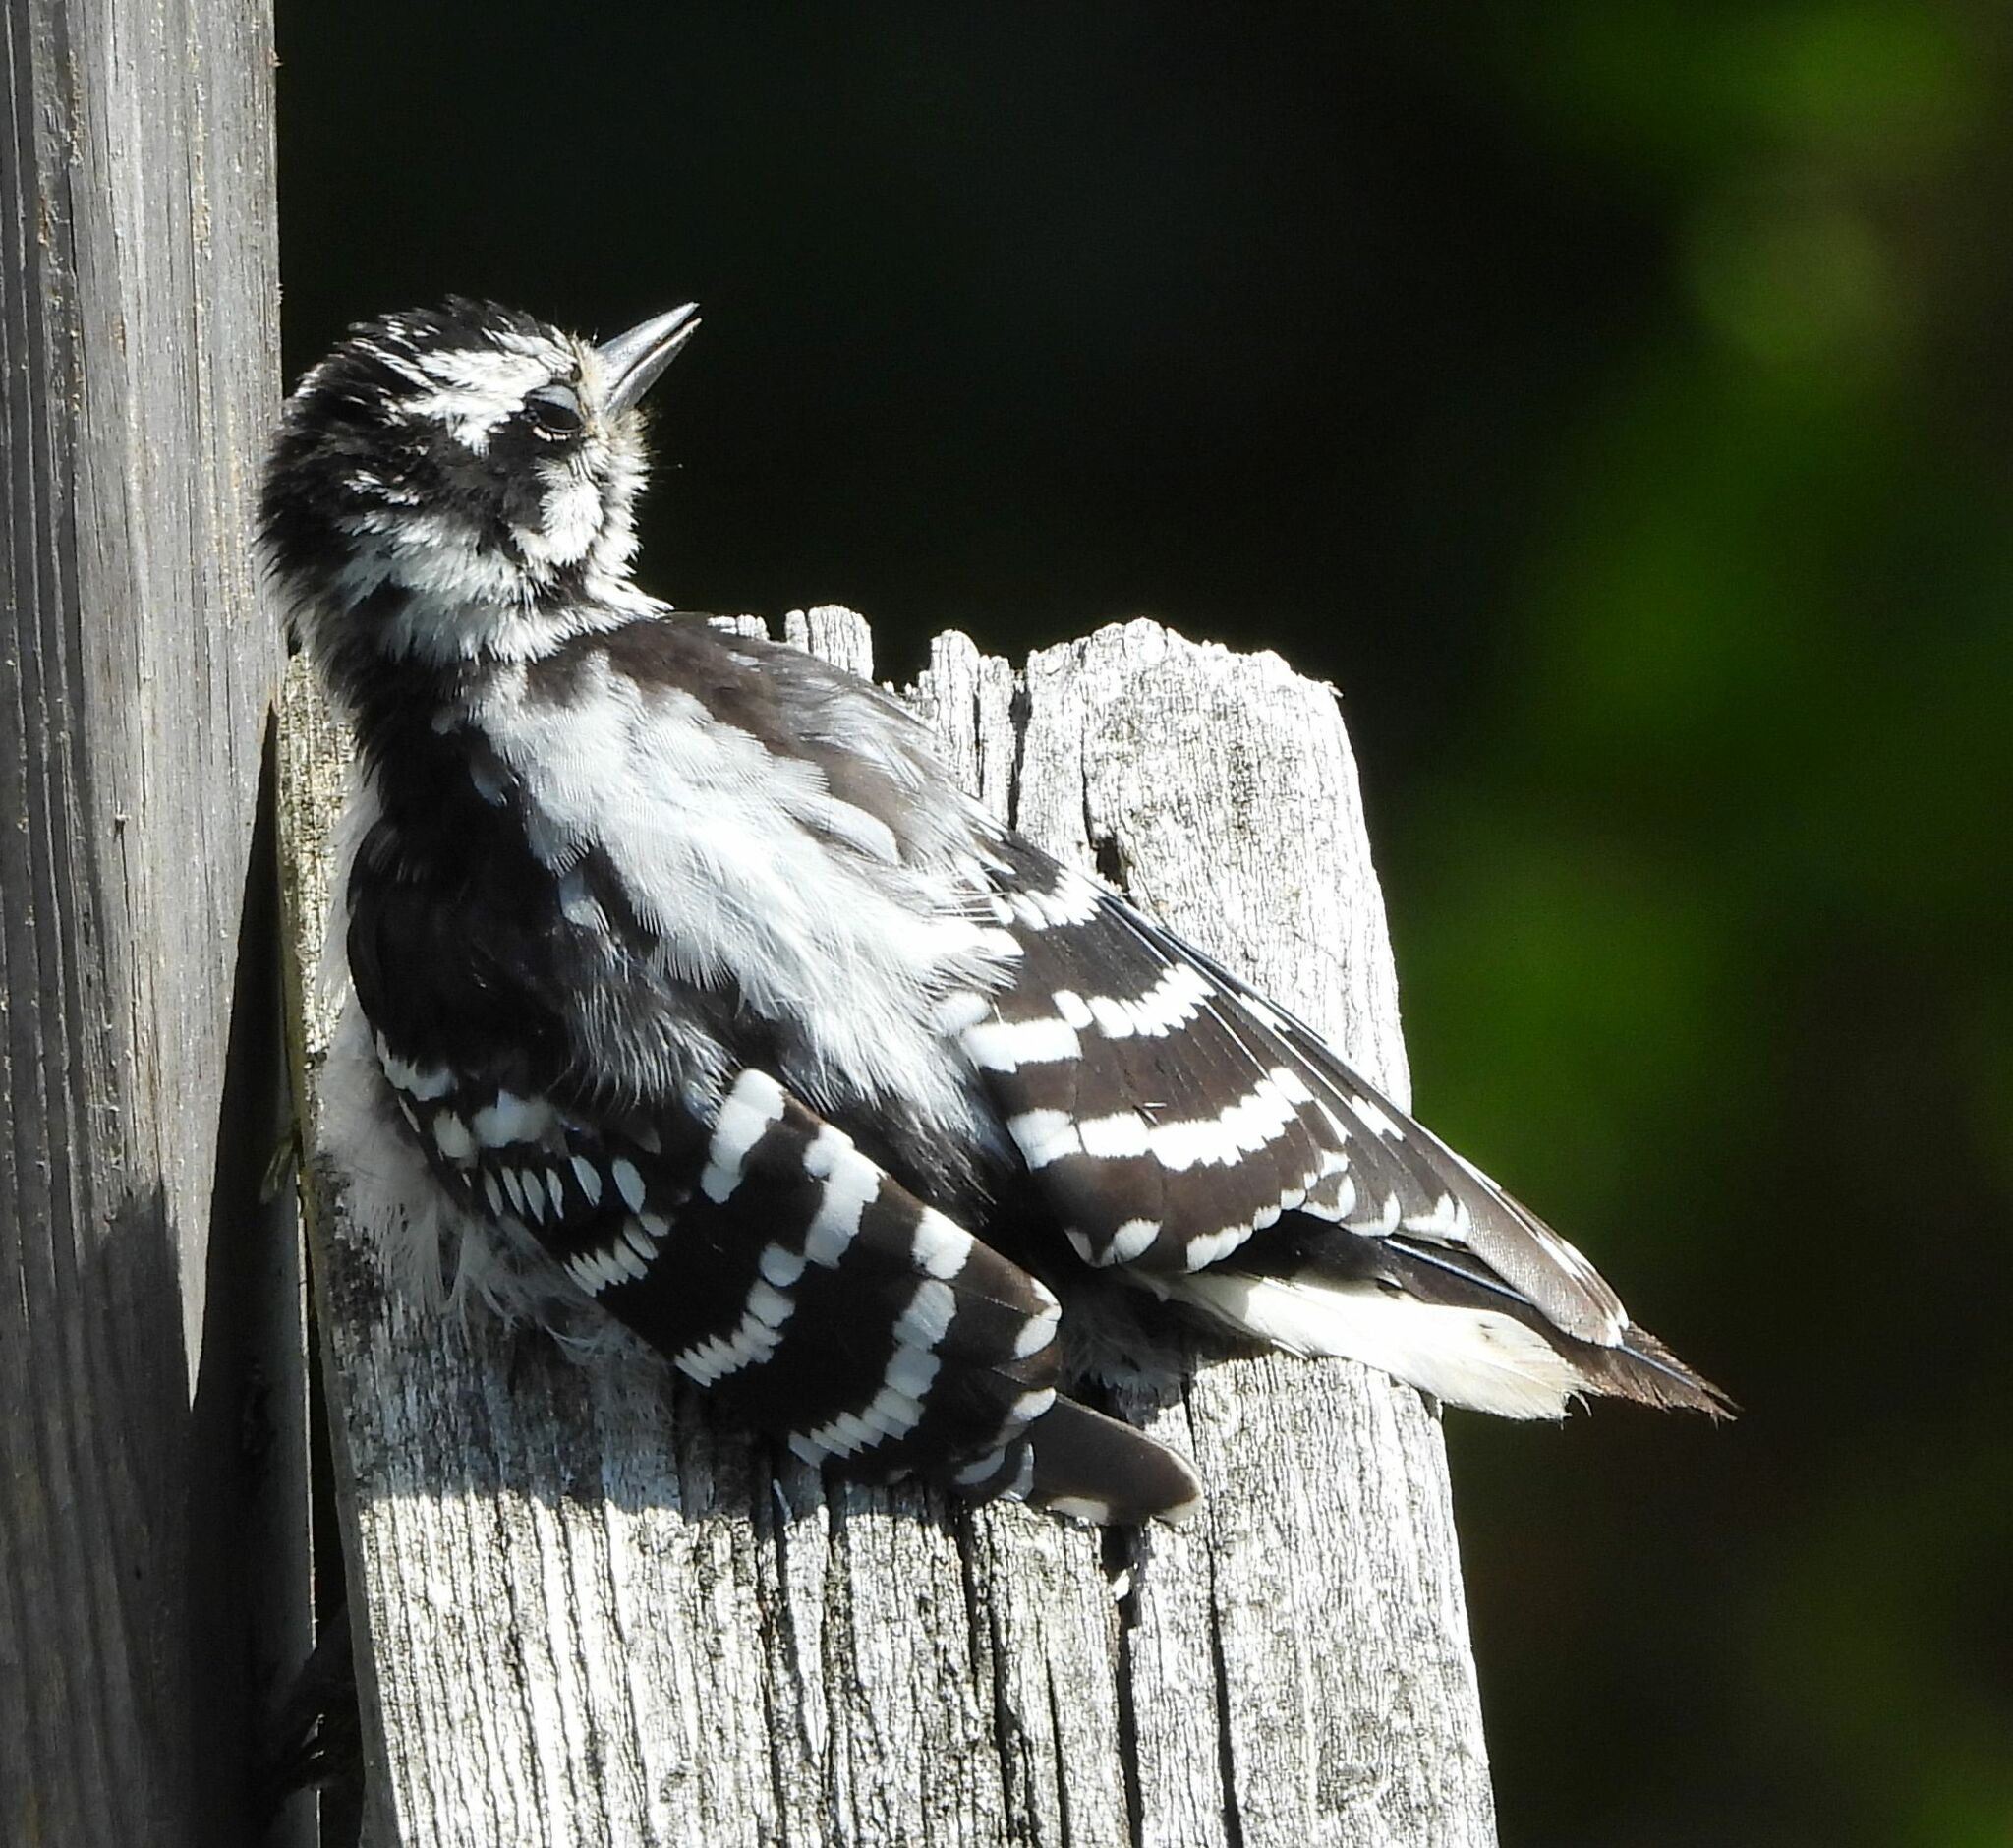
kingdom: Animalia
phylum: Chordata
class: Aves
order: Piciformes
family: Picidae
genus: Dryobates
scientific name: Dryobates pubescens
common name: Downy woodpecker
